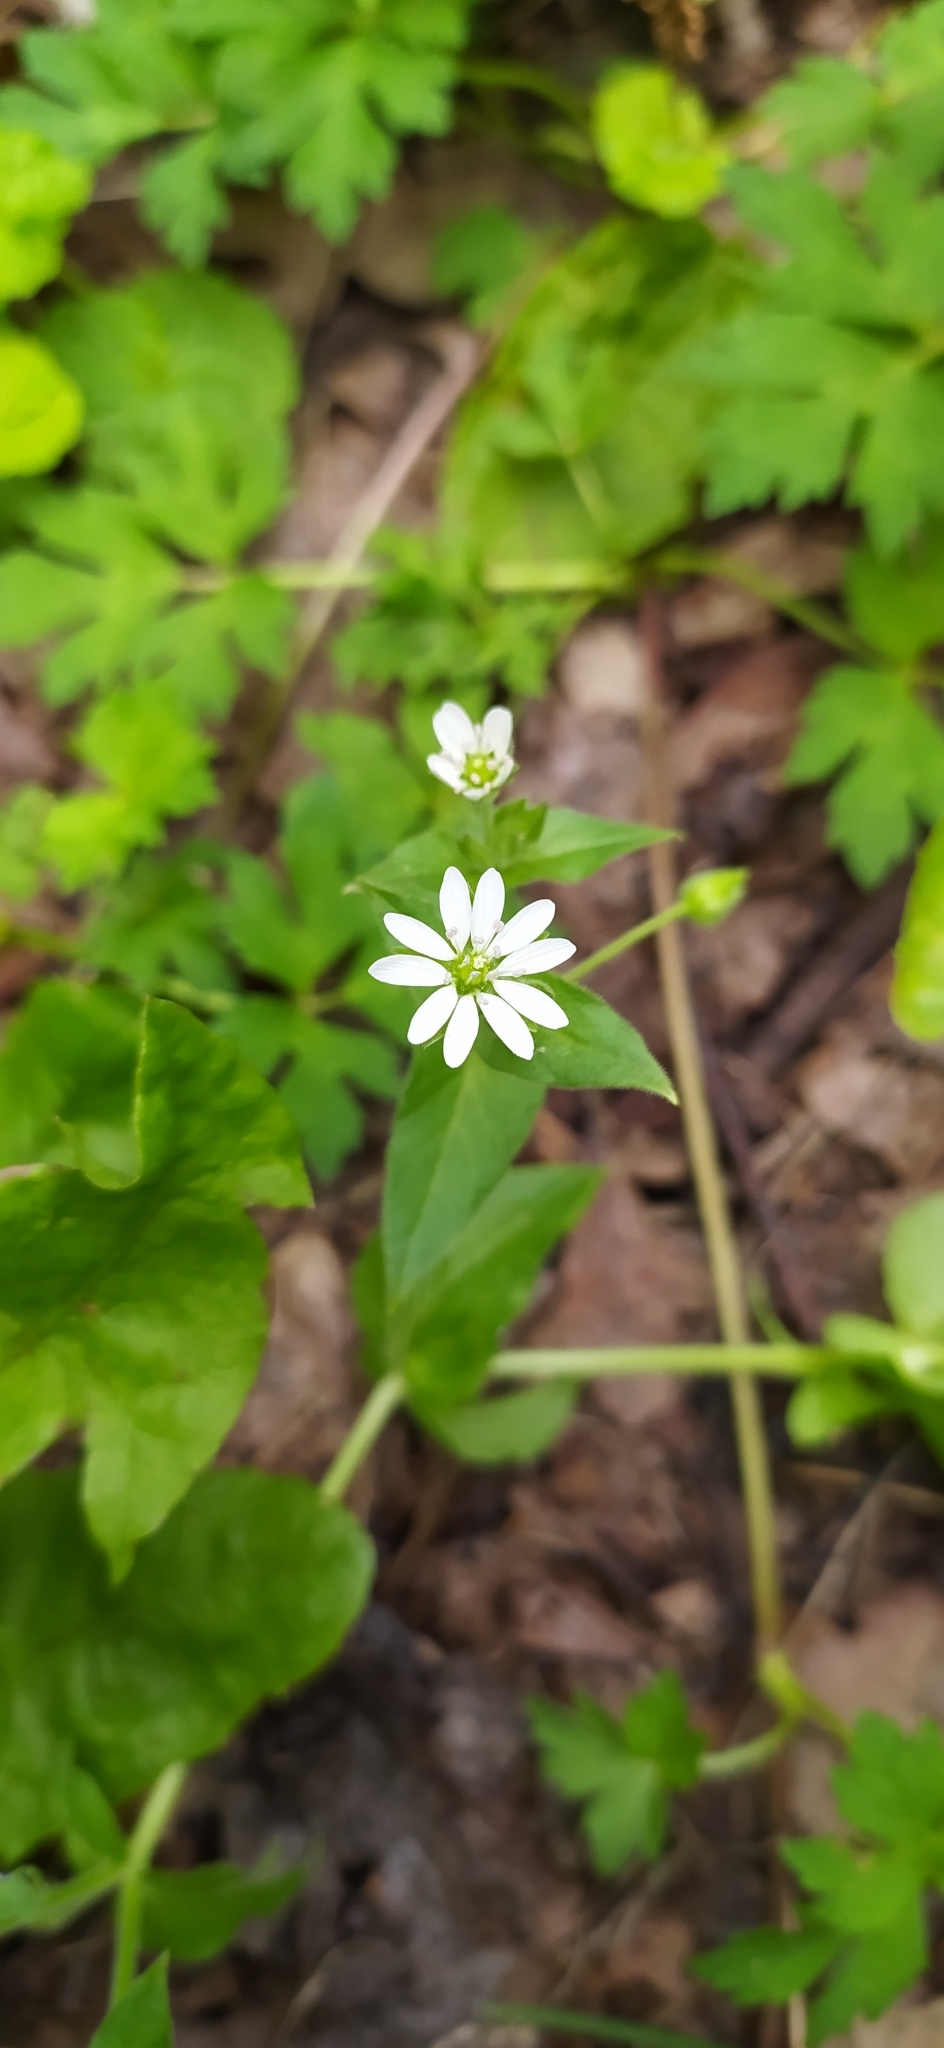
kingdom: Plantae
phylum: Tracheophyta
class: Magnoliopsida
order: Caryophyllales
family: Caryophyllaceae
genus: Stellaria
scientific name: Stellaria aquatica
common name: Water chickweed
